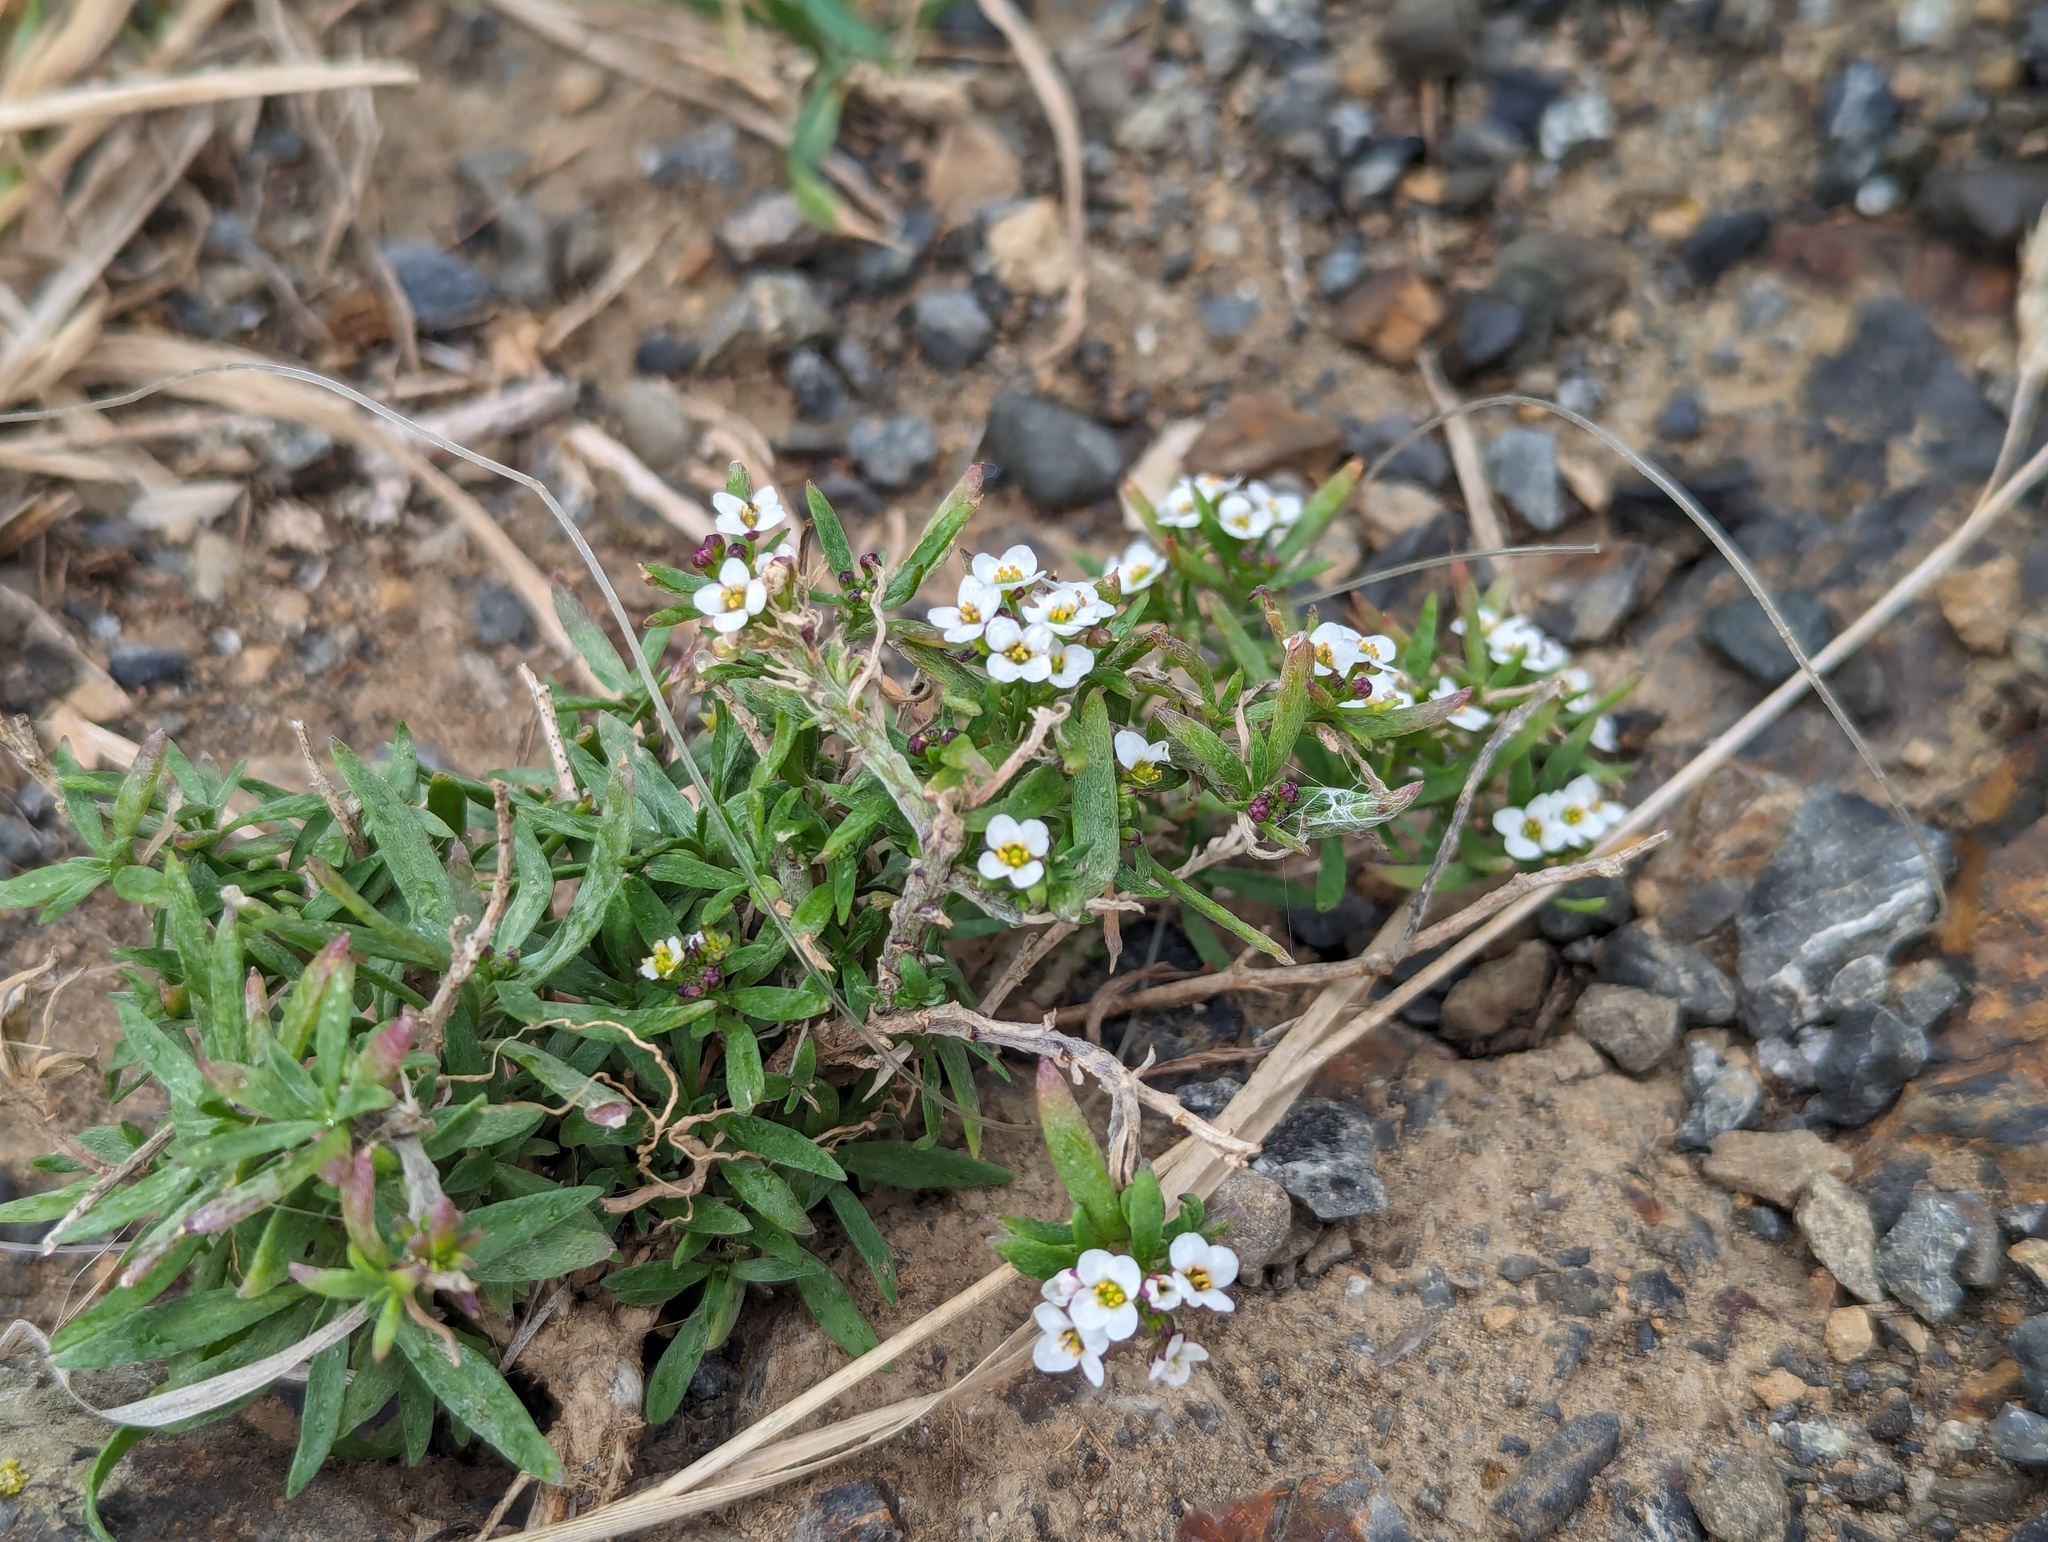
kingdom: Plantae
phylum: Tracheophyta
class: Magnoliopsida
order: Brassicales
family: Brassicaceae
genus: Lobularia
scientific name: Lobularia maritima
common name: Sweet alison
